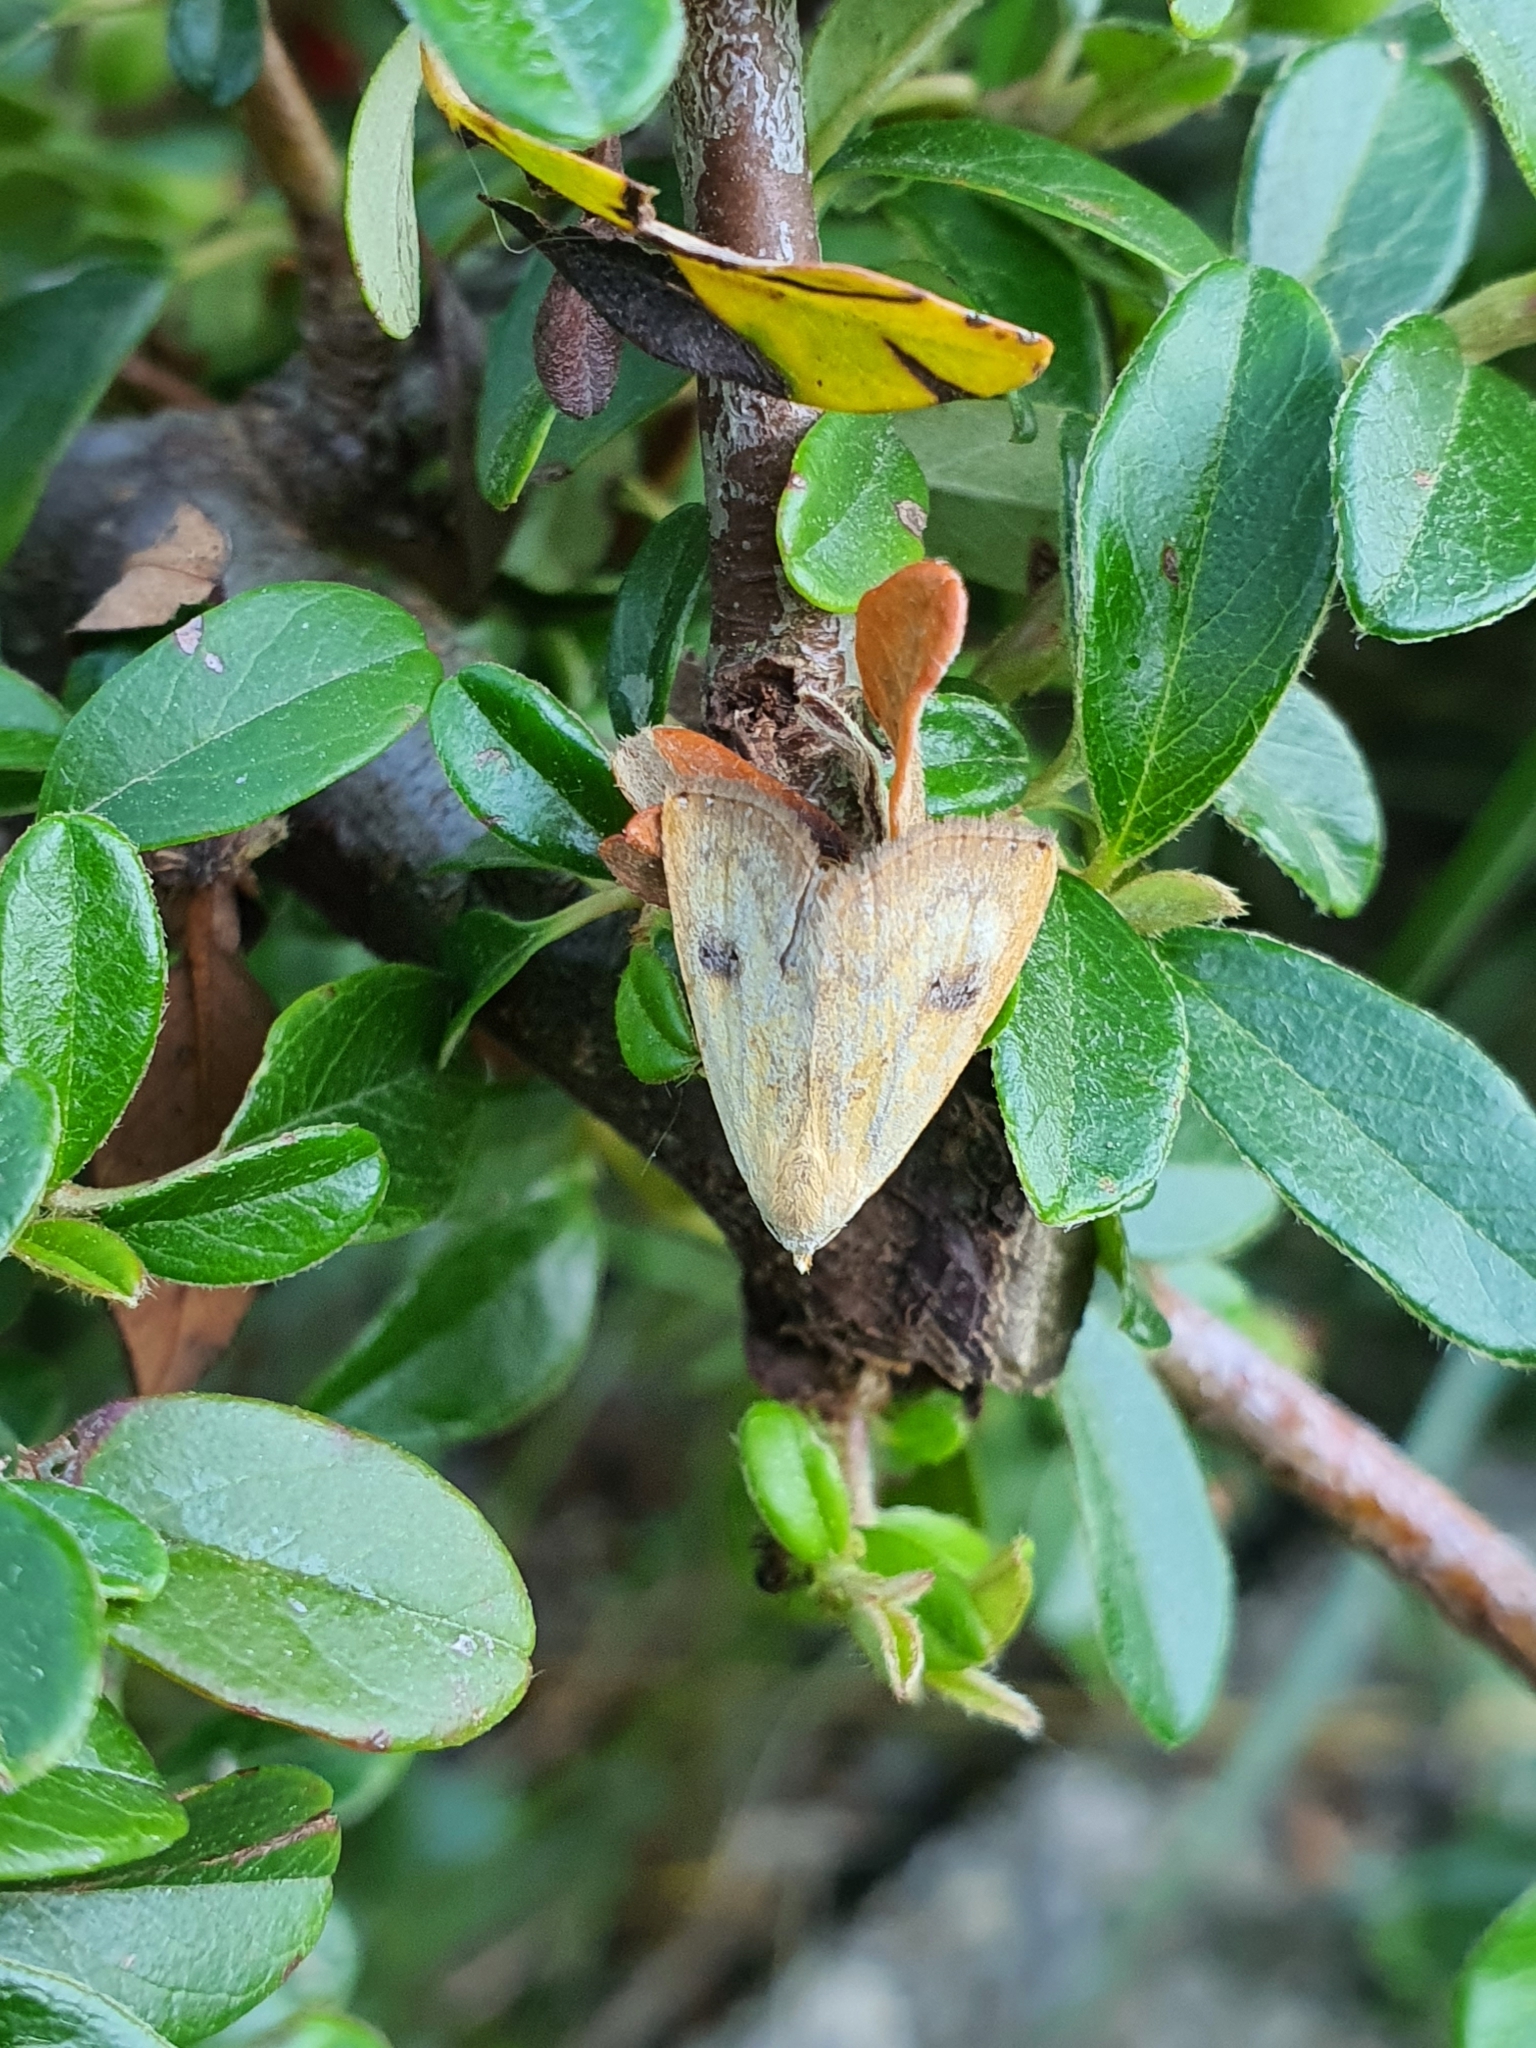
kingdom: Animalia
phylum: Arthropoda
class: Insecta
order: Lepidoptera
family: Erebidae
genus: Rivula
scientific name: Rivula sericealis
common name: Straw dot
